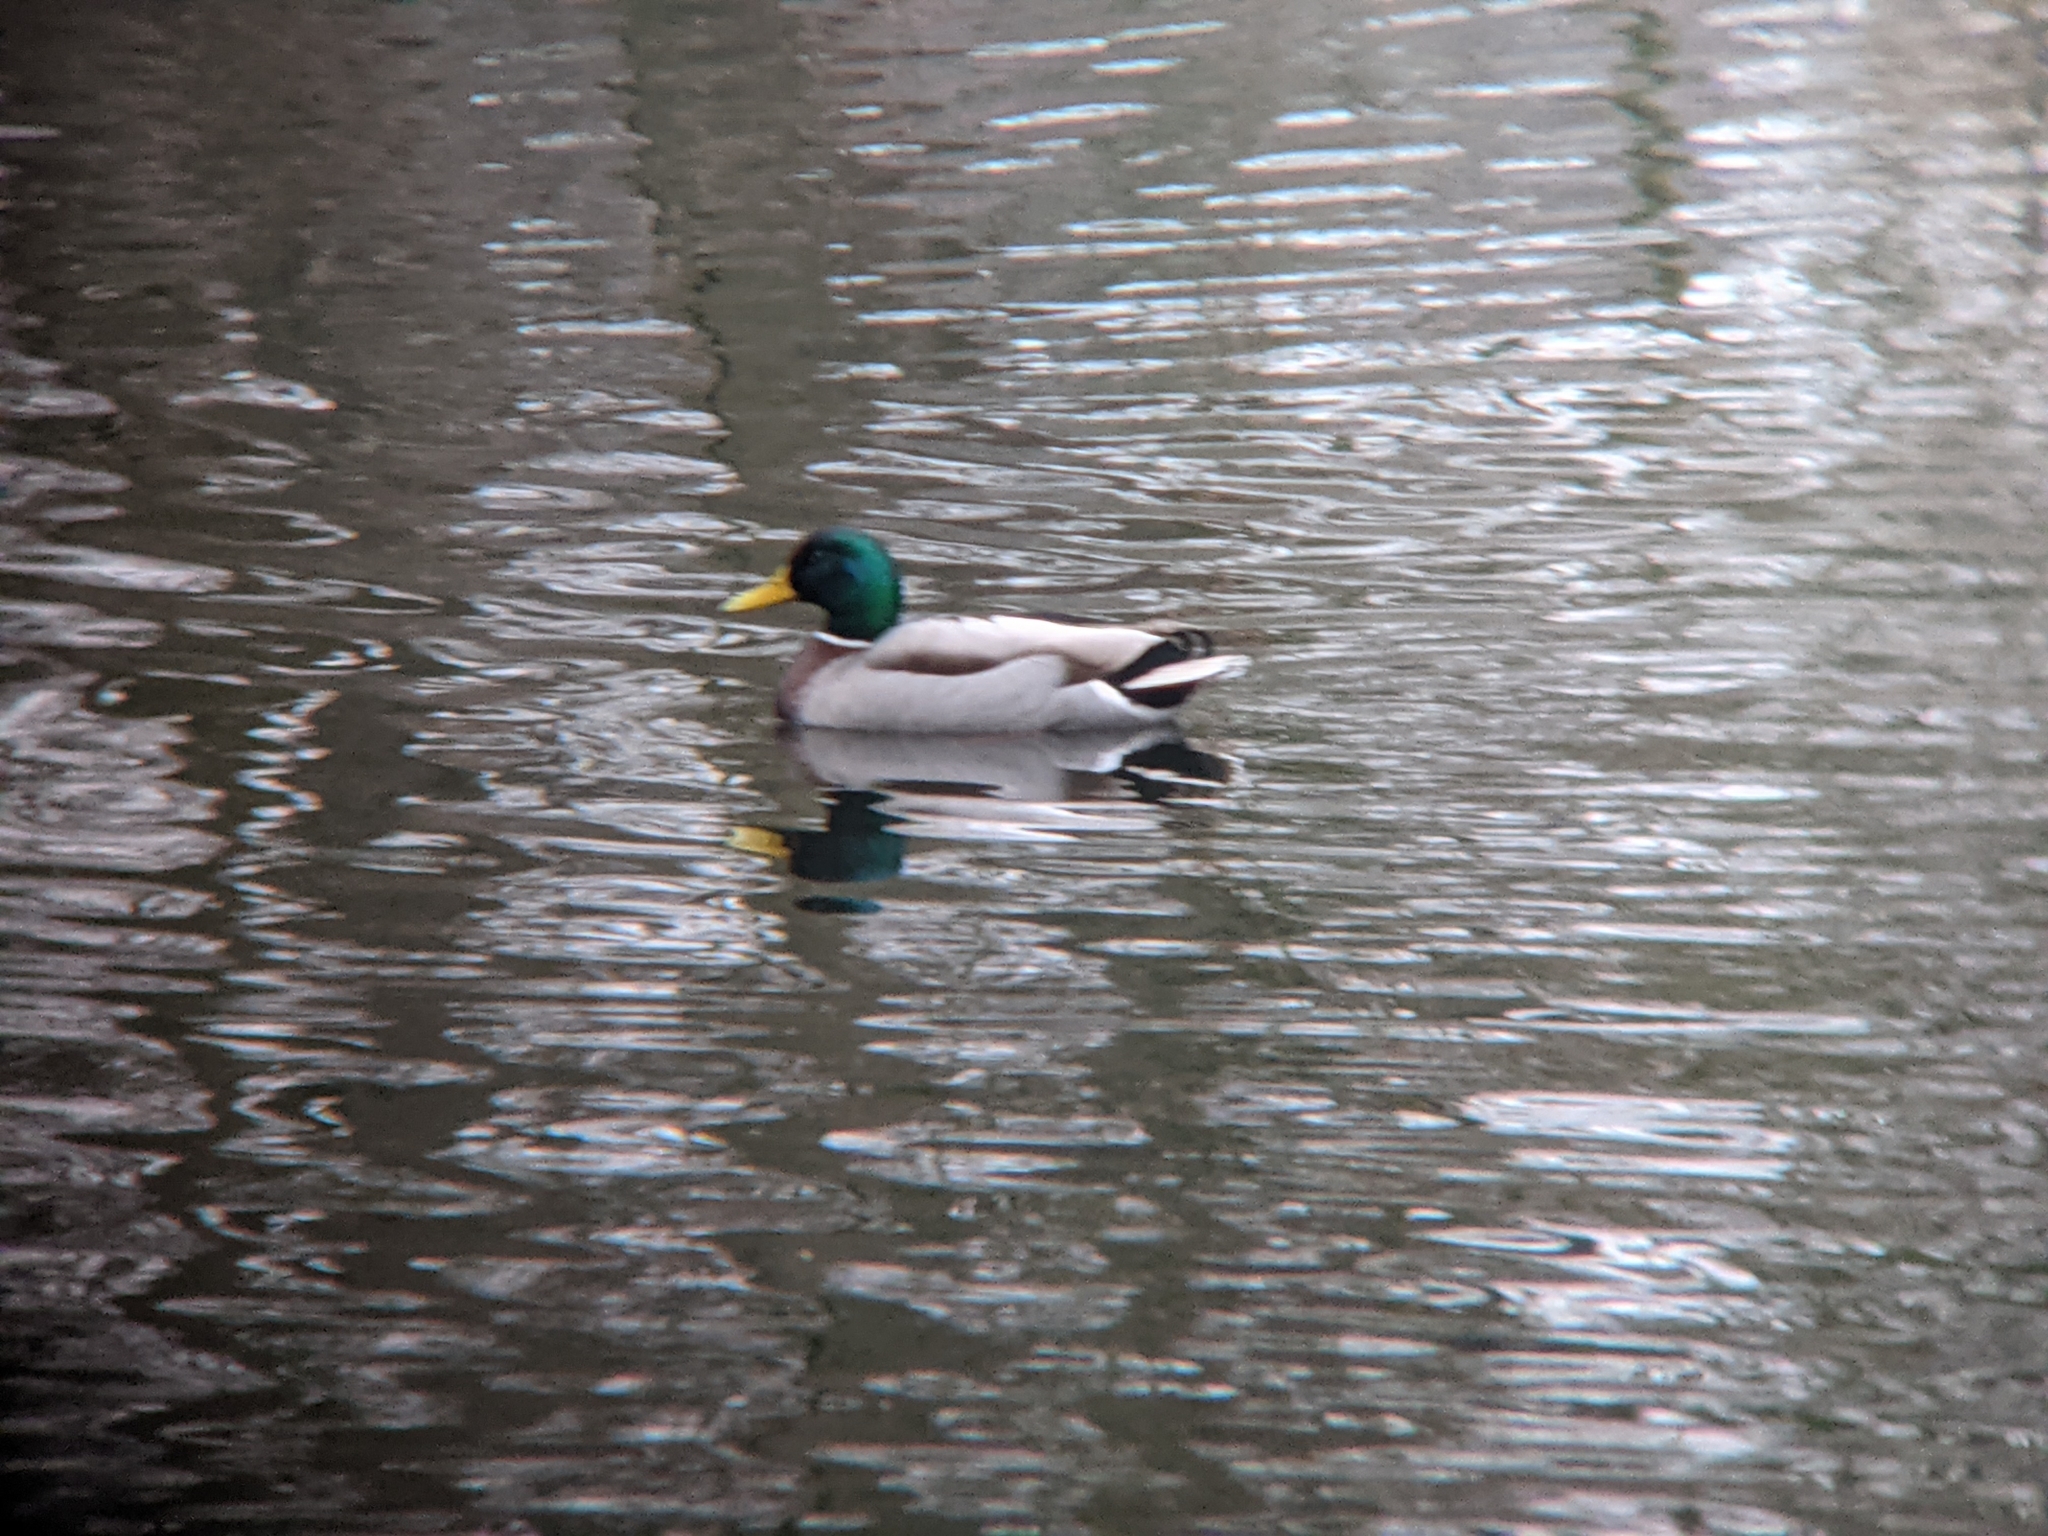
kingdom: Animalia
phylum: Chordata
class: Aves
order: Anseriformes
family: Anatidae
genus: Anas
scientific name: Anas platyrhynchos
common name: Mallard
